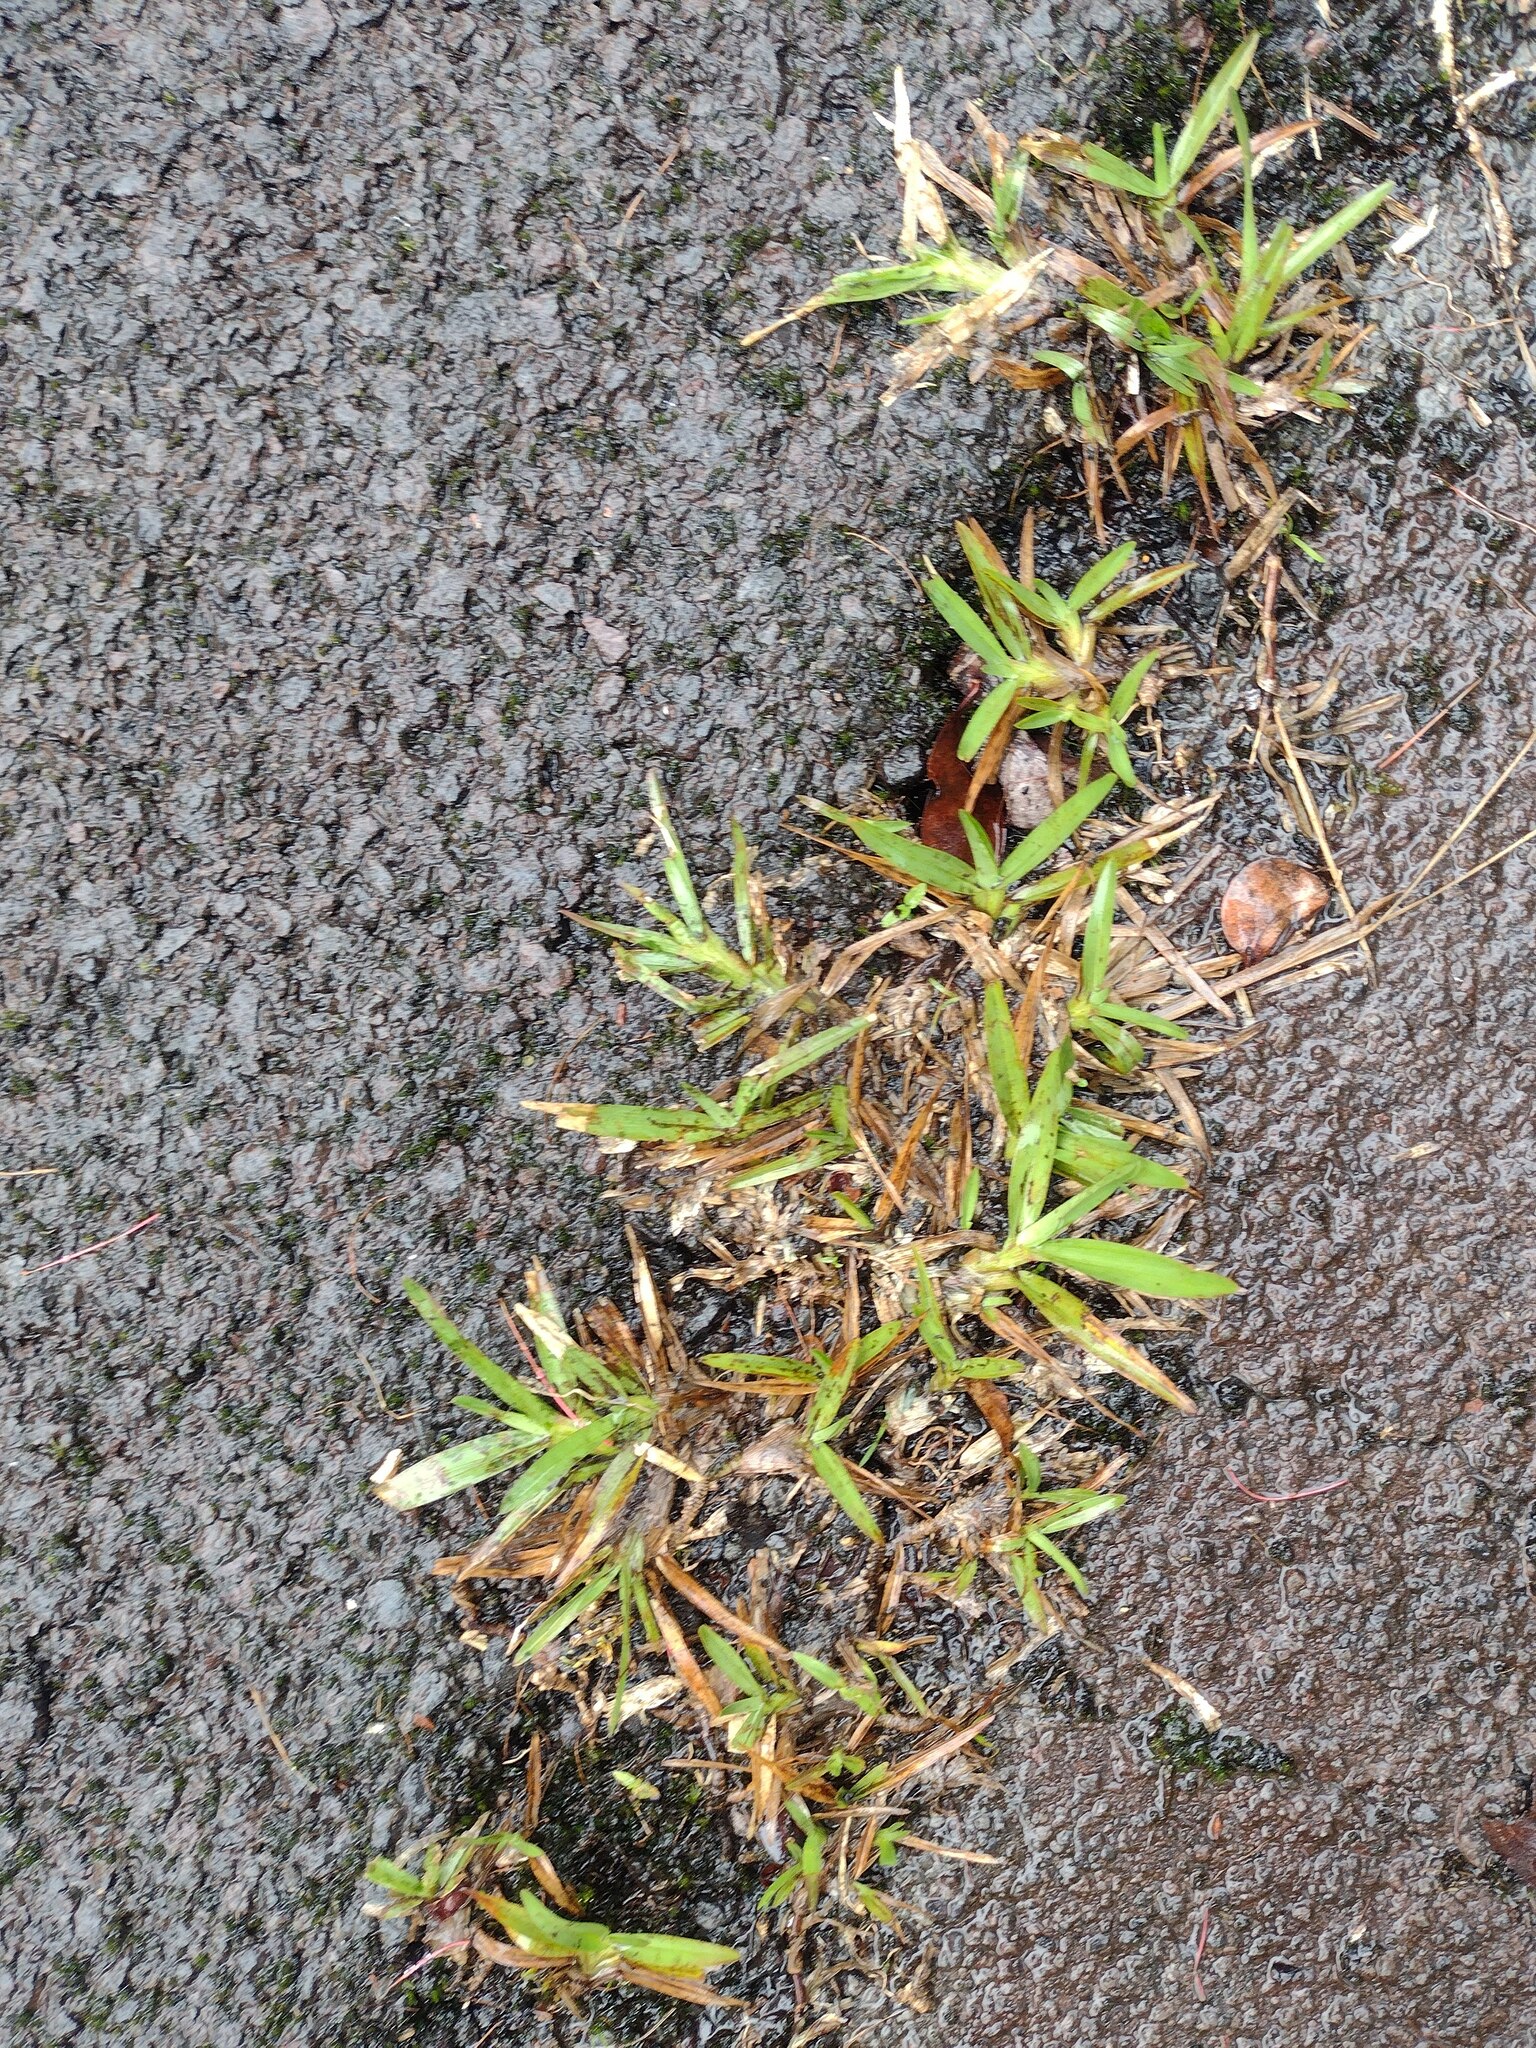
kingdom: Plantae
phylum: Tracheophyta
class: Liliopsida
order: Poales
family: Poaceae
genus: Axonopus
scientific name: Axonopus fissifolius
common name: Common carpetgrass
